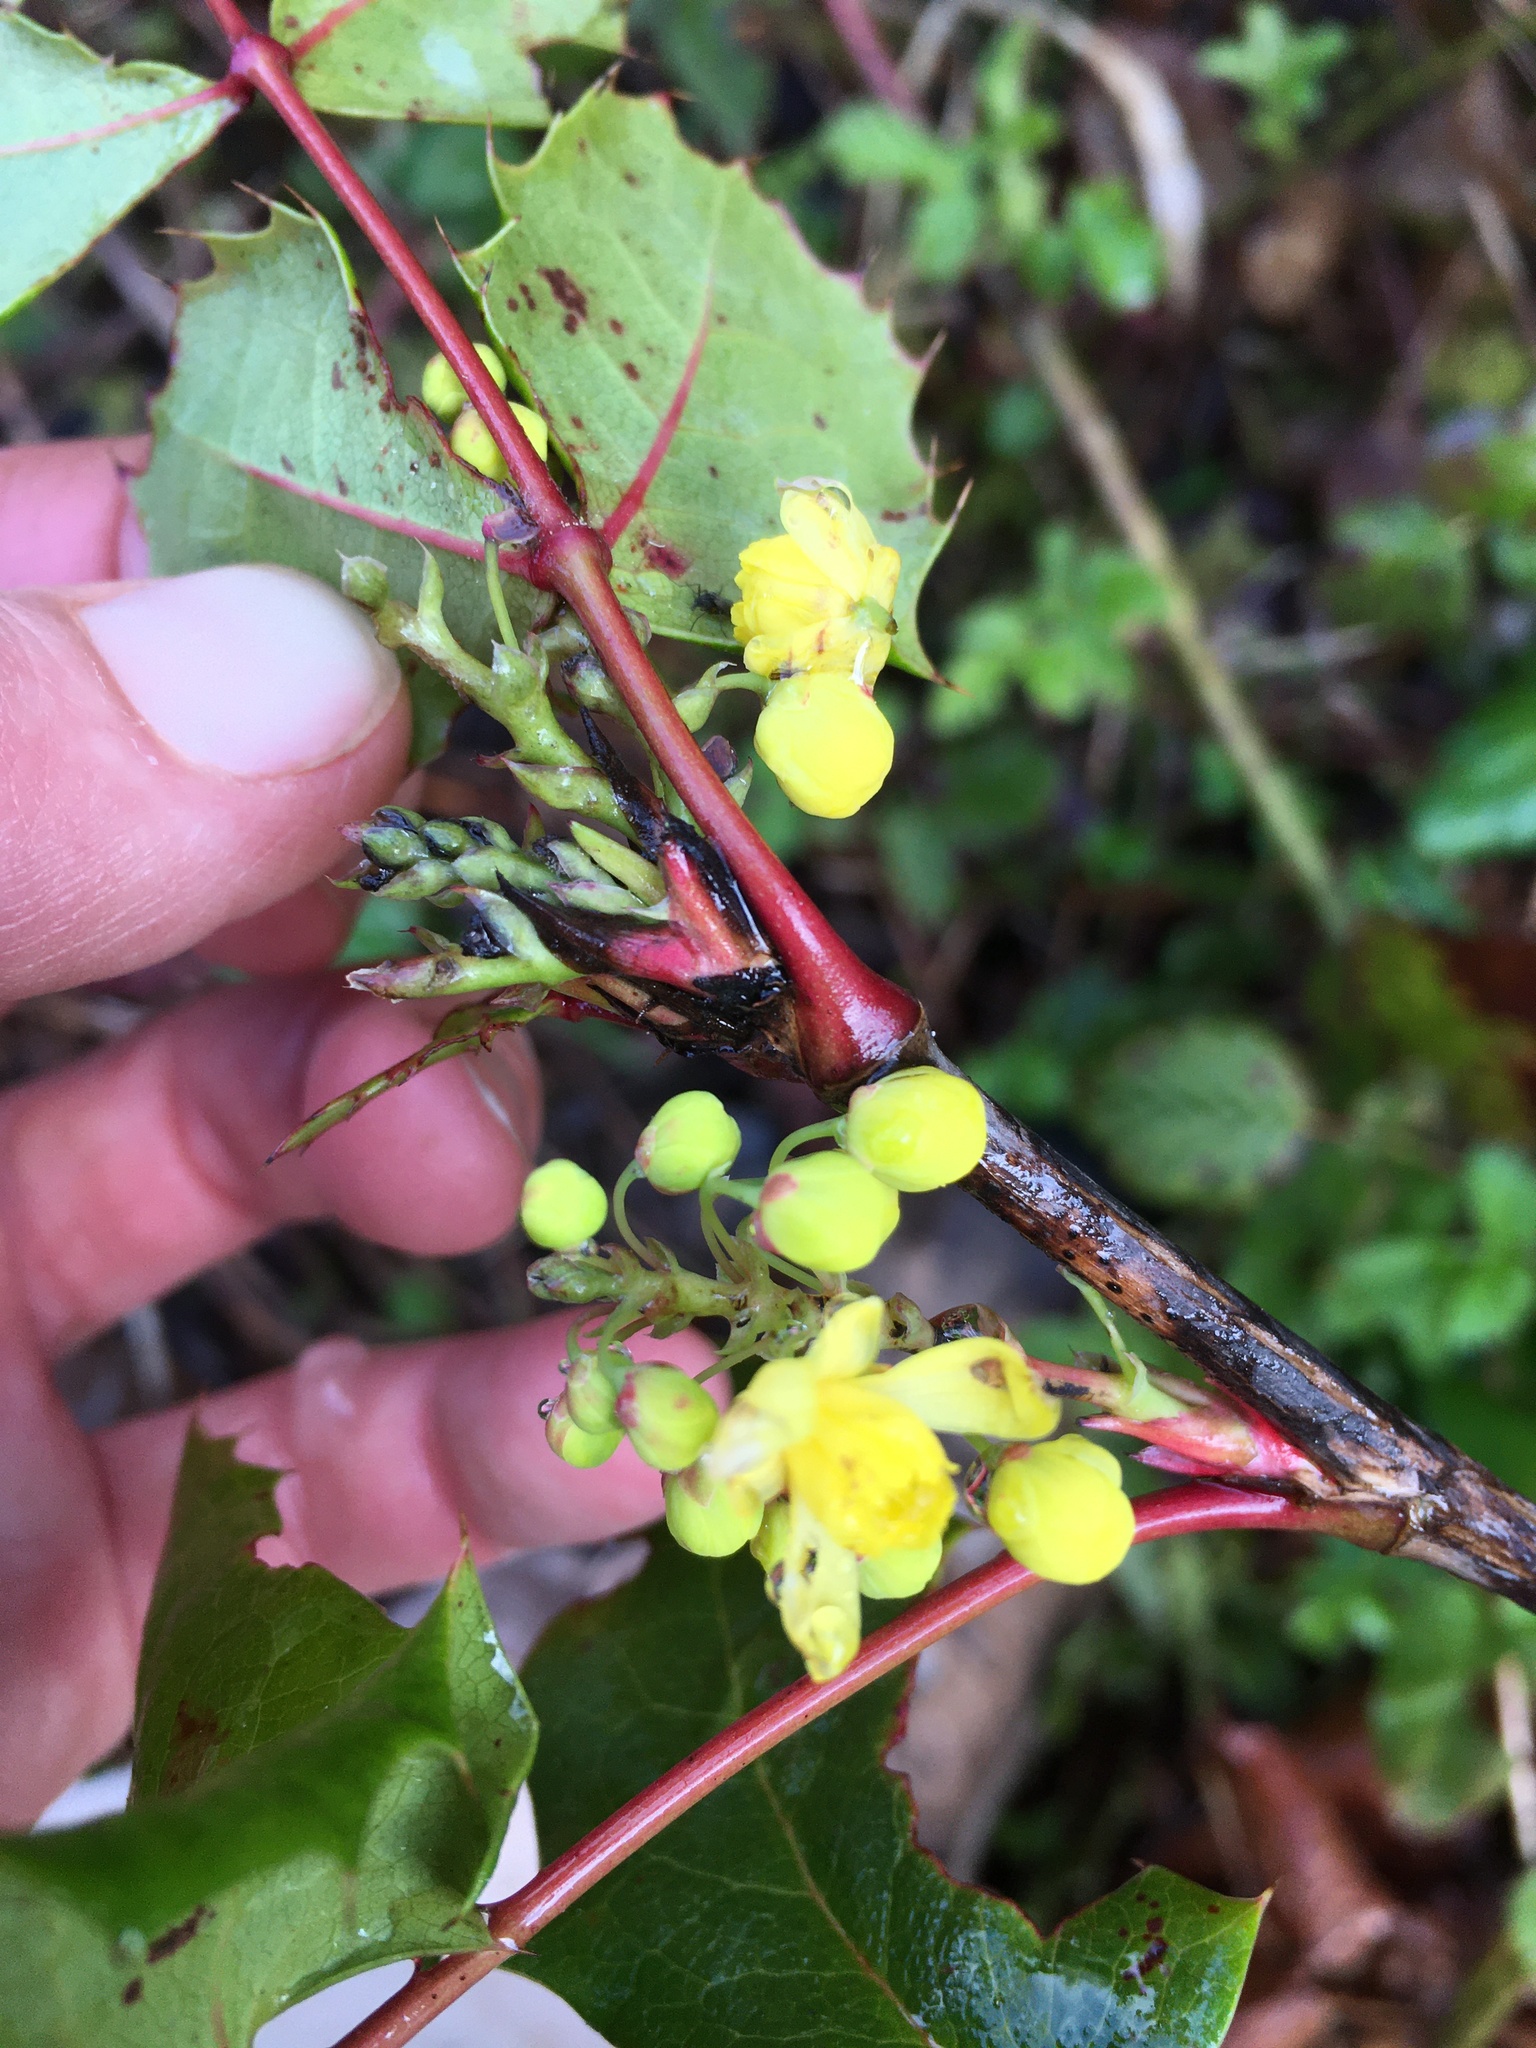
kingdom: Plantae
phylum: Tracheophyta
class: Magnoliopsida
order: Ranunculales
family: Berberidaceae
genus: Mahonia
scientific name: Mahonia aquifolium
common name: Oregon-grape
